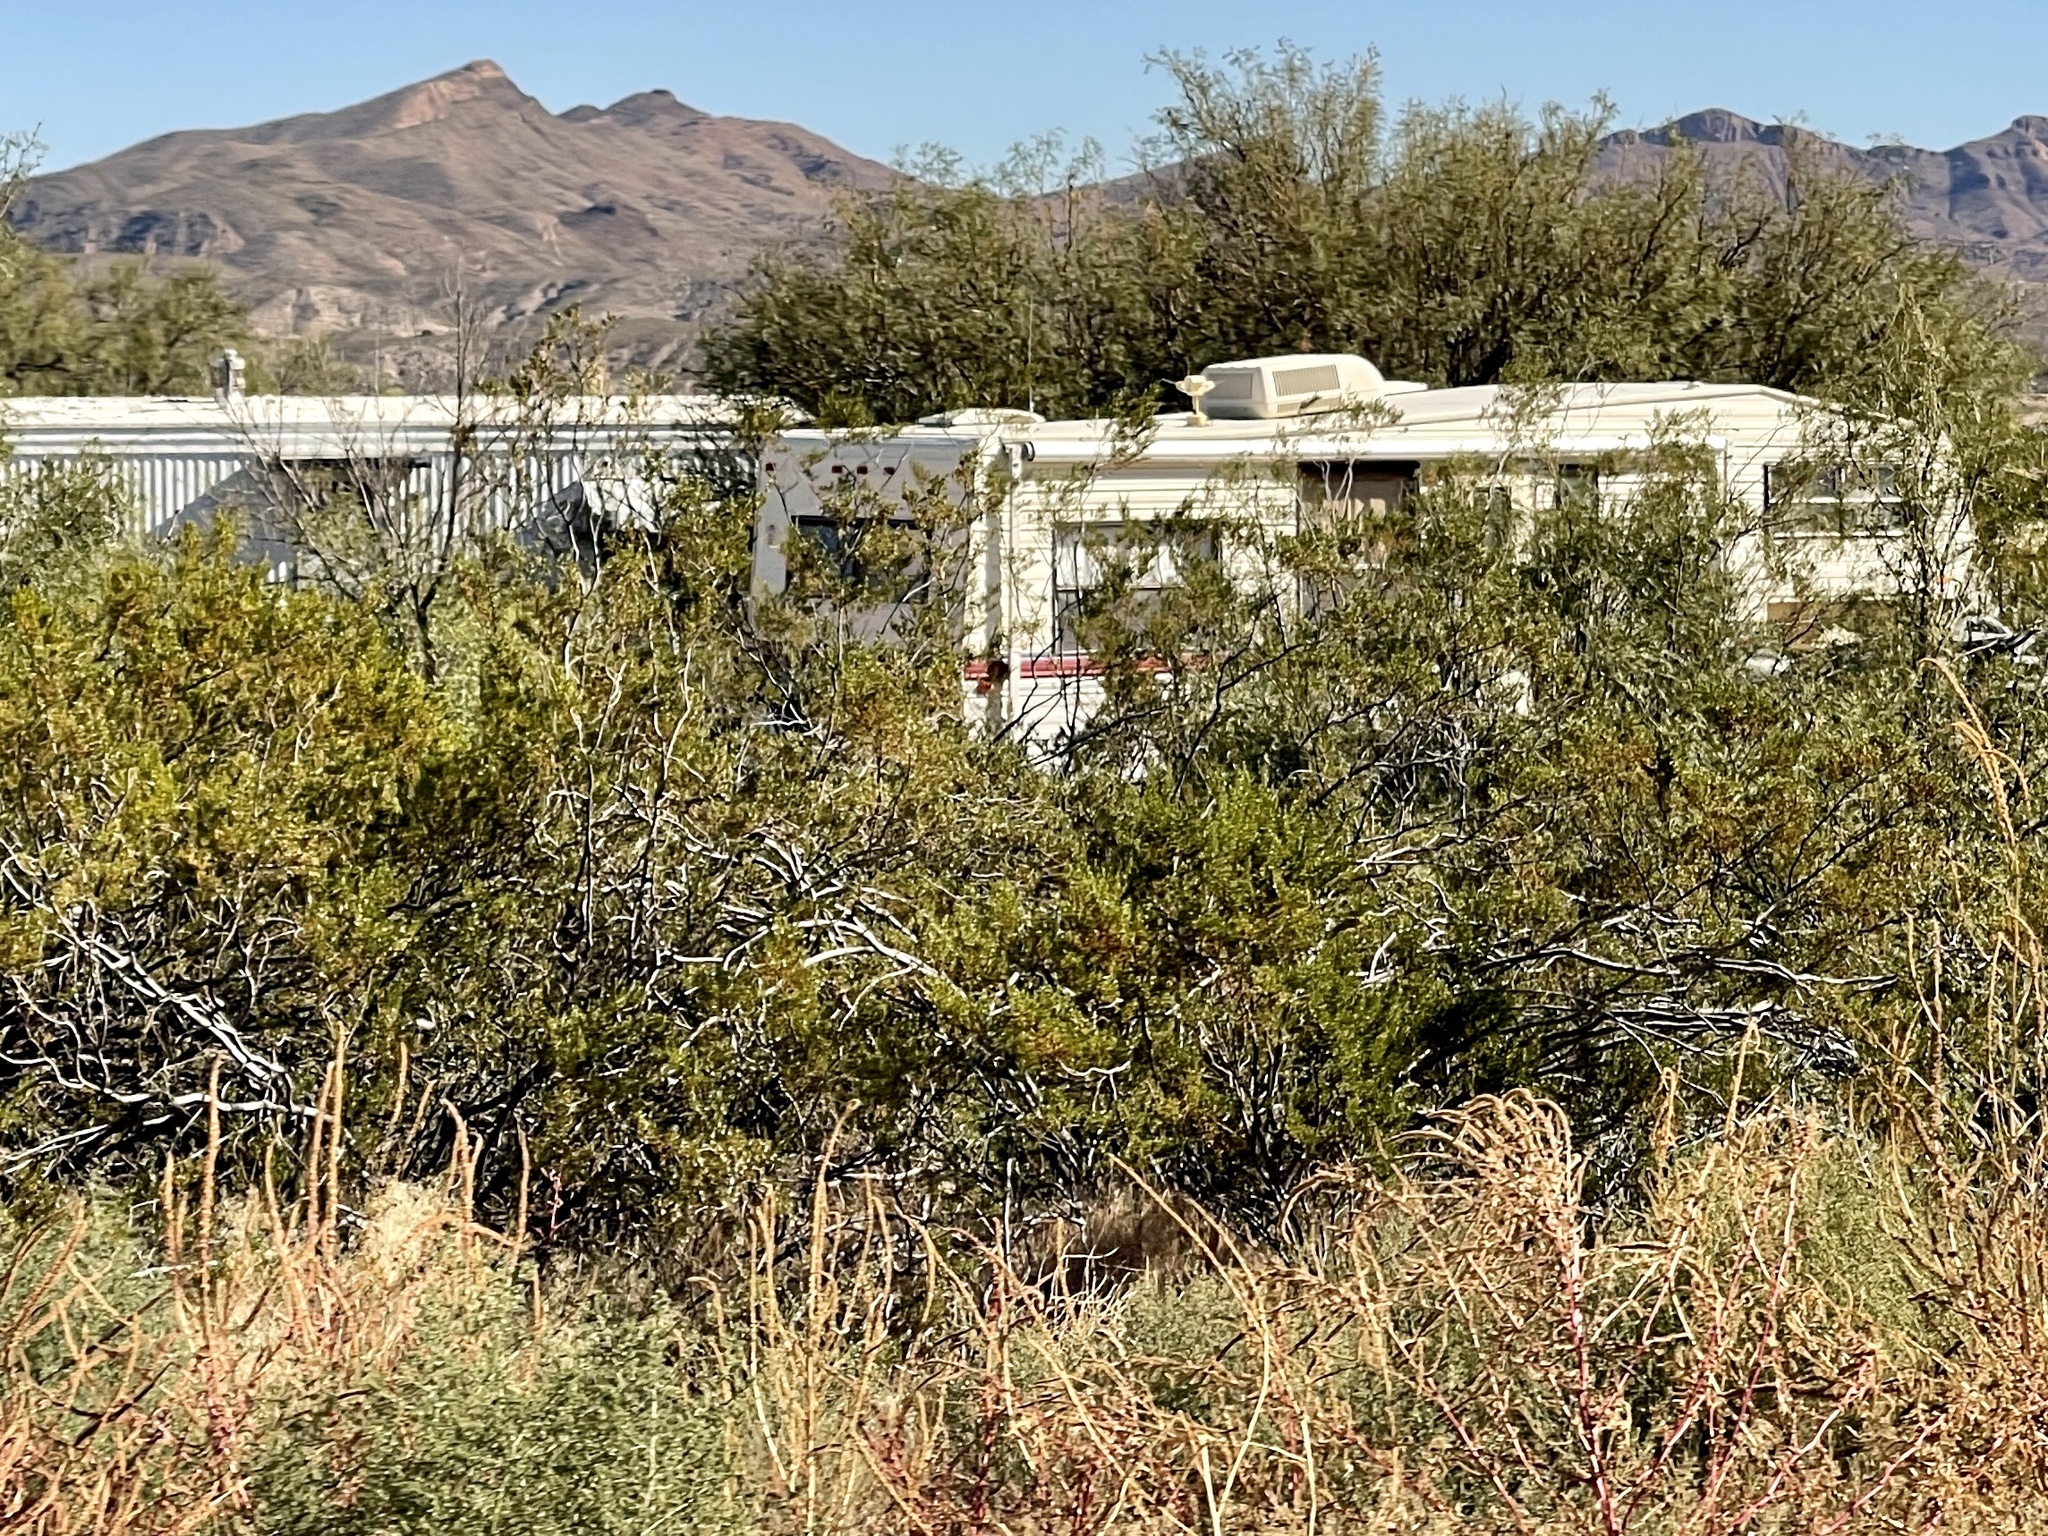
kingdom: Plantae
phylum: Tracheophyta
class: Magnoliopsida
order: Zygophyllales
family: Zygophyllaceae
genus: Larrea
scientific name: Larrea tridentata
